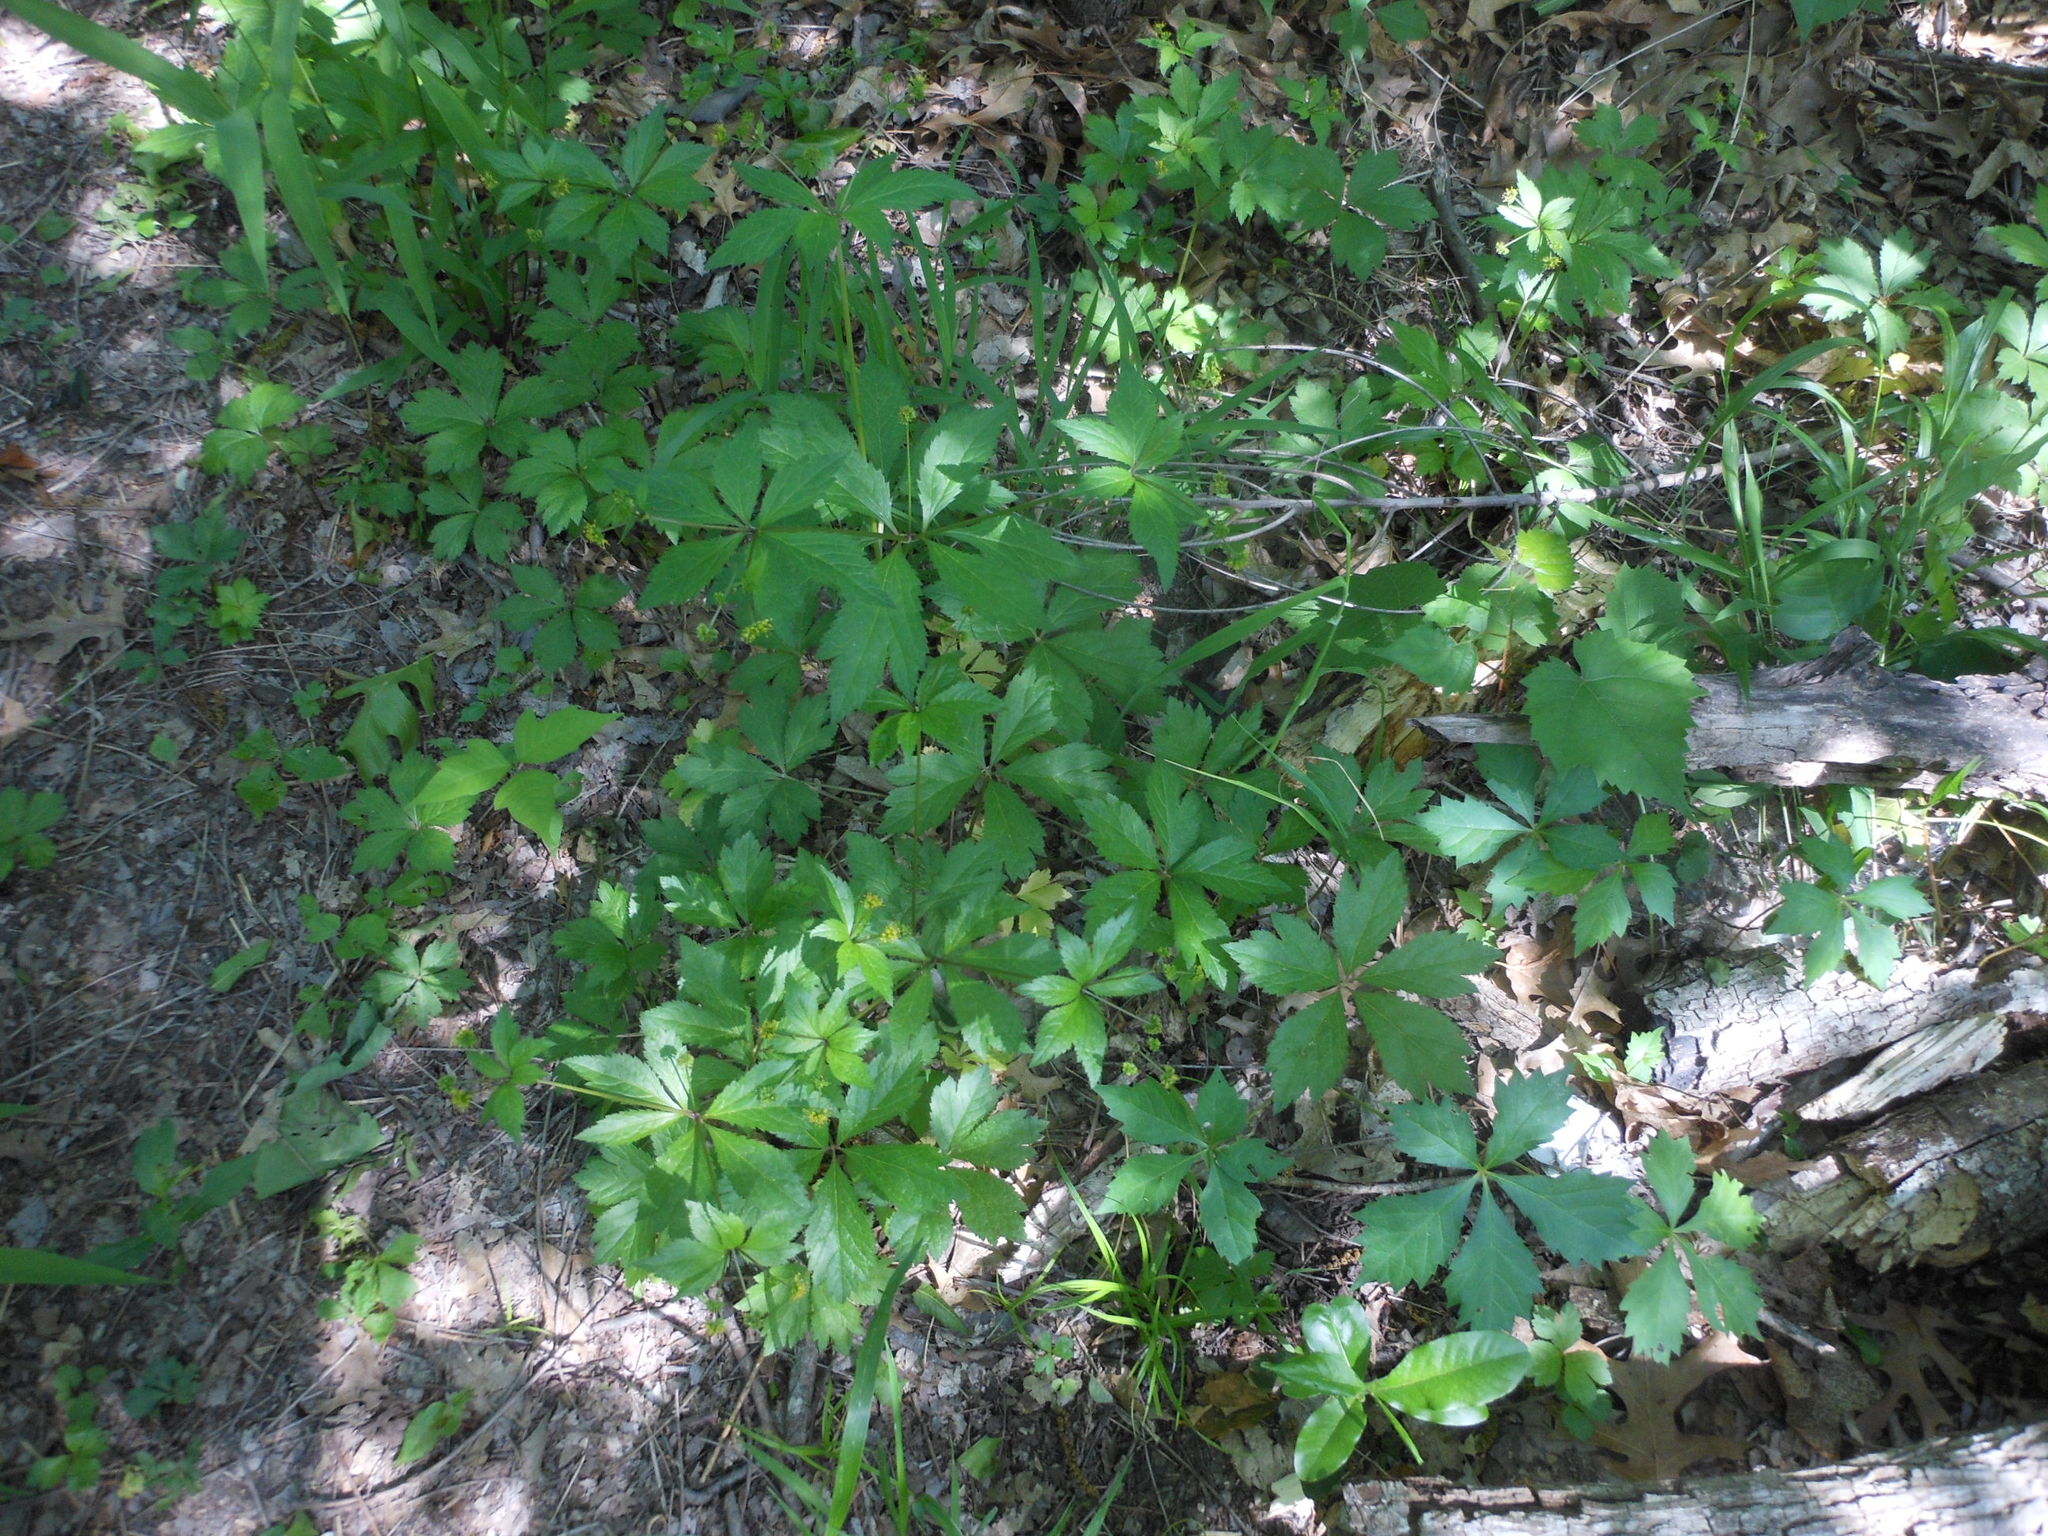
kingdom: Plantae
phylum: Tracheophyta
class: Magnoliopsida
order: Apiales
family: Apiaceae
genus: Sanicula
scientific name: Sanicula odorata
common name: Cluster sanicle
